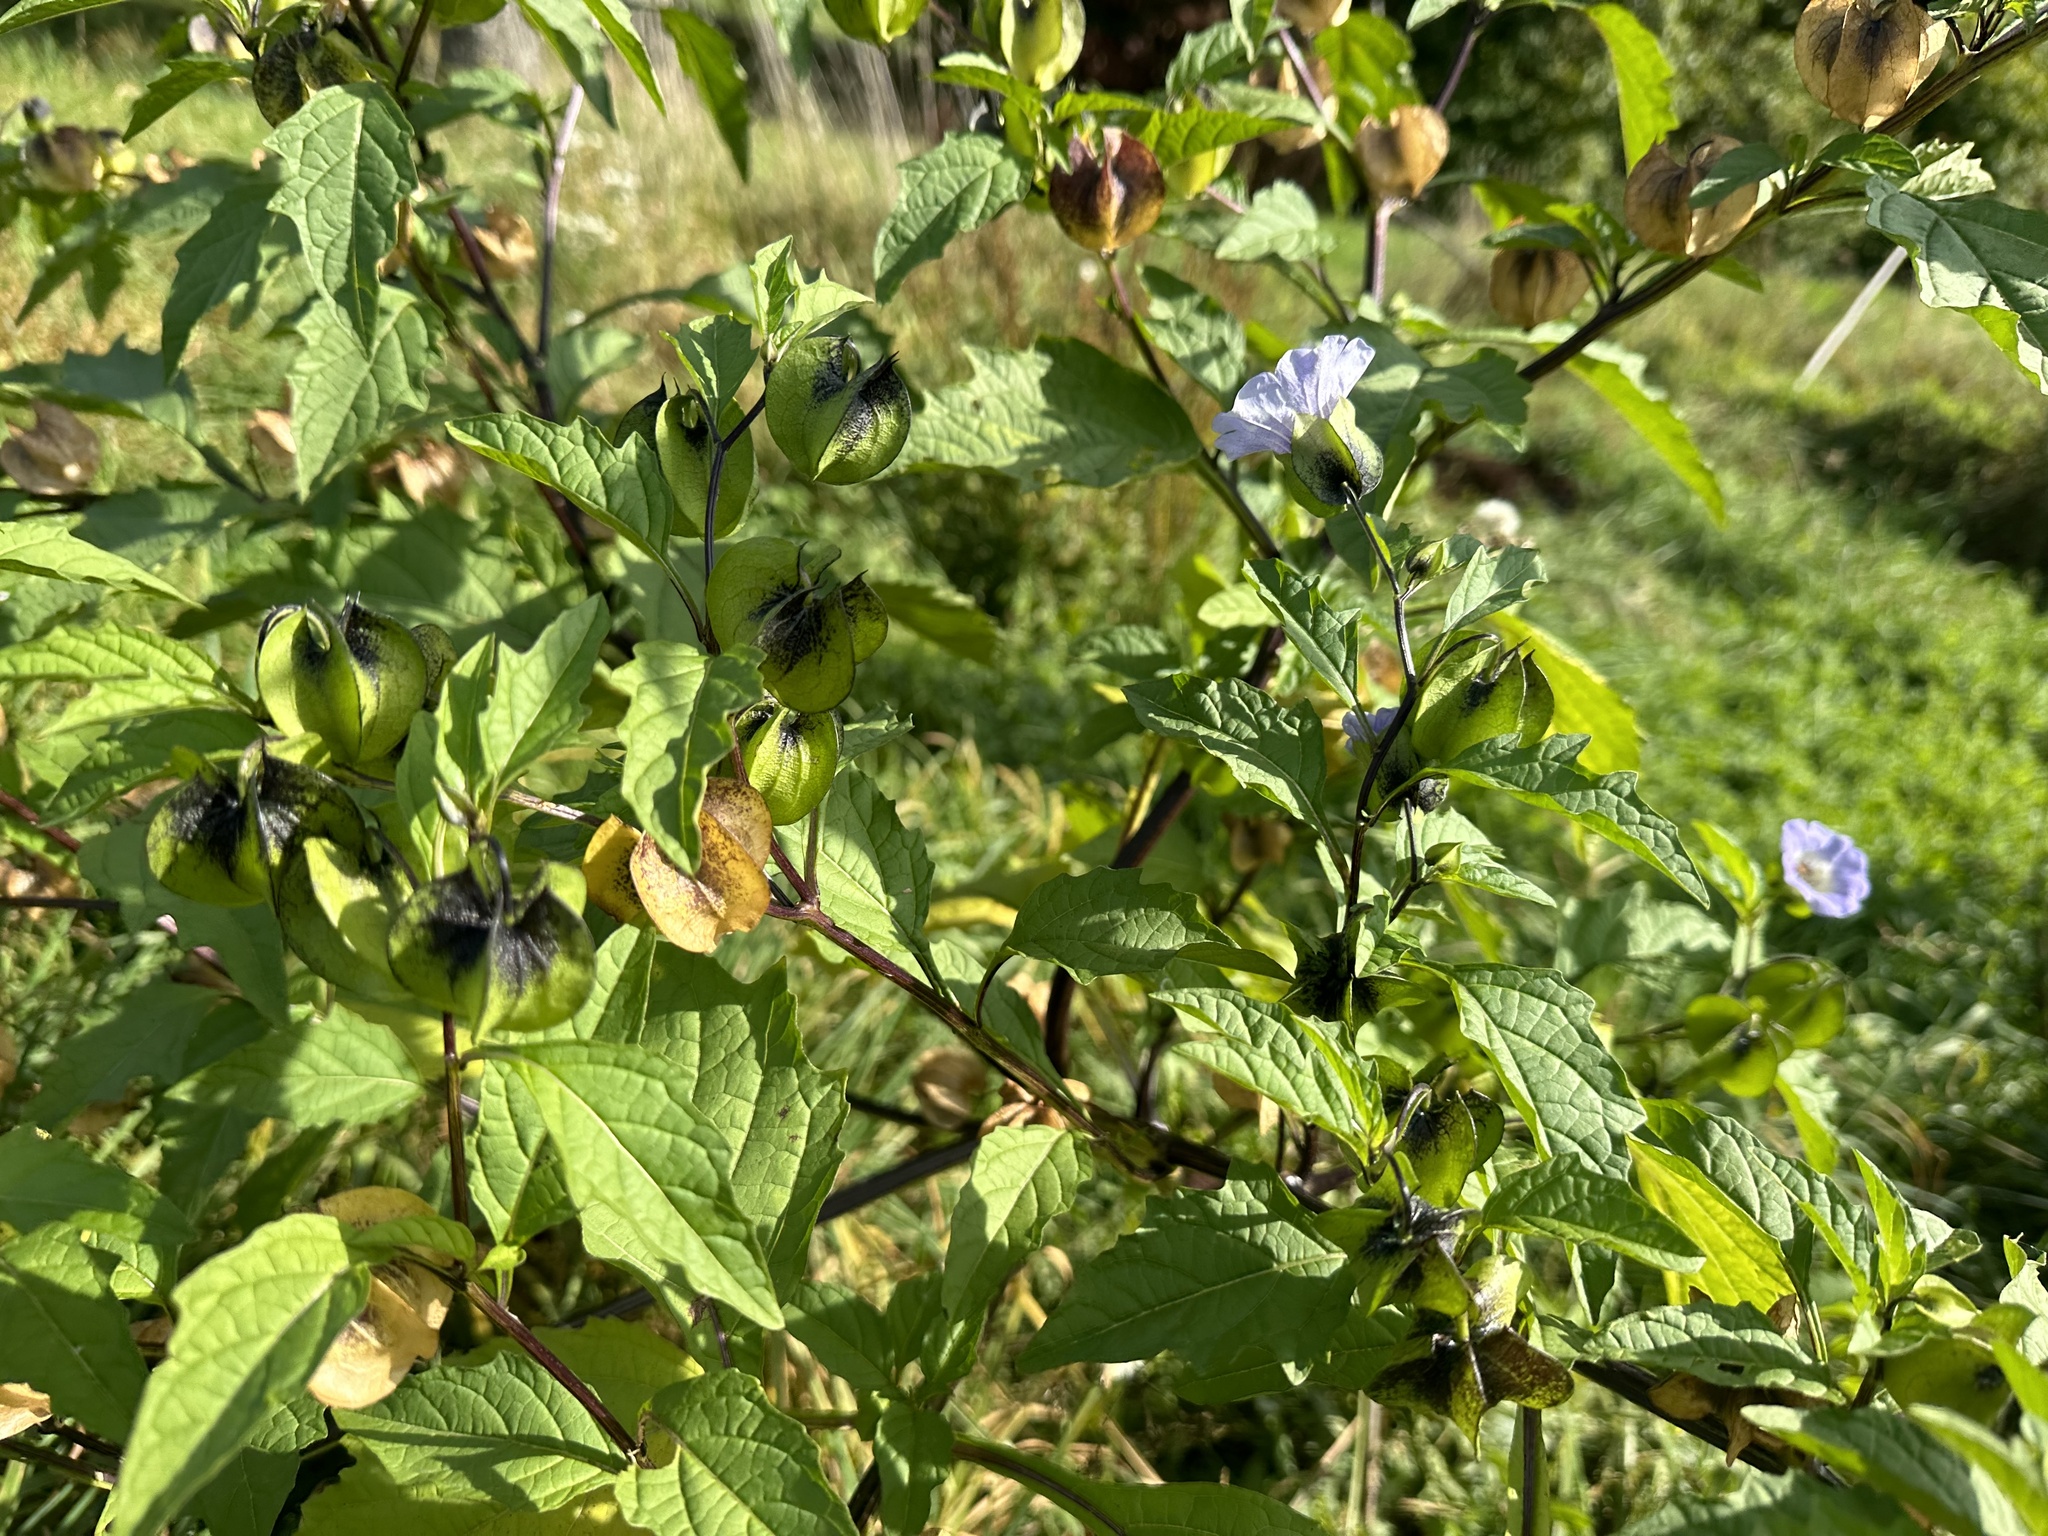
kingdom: Plantae
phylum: Tracheophyta
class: Magnoliopsida
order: Solanales
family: Solanaceae
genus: Nicandra
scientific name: Nicandra physalodes
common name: Apple-of-peru
